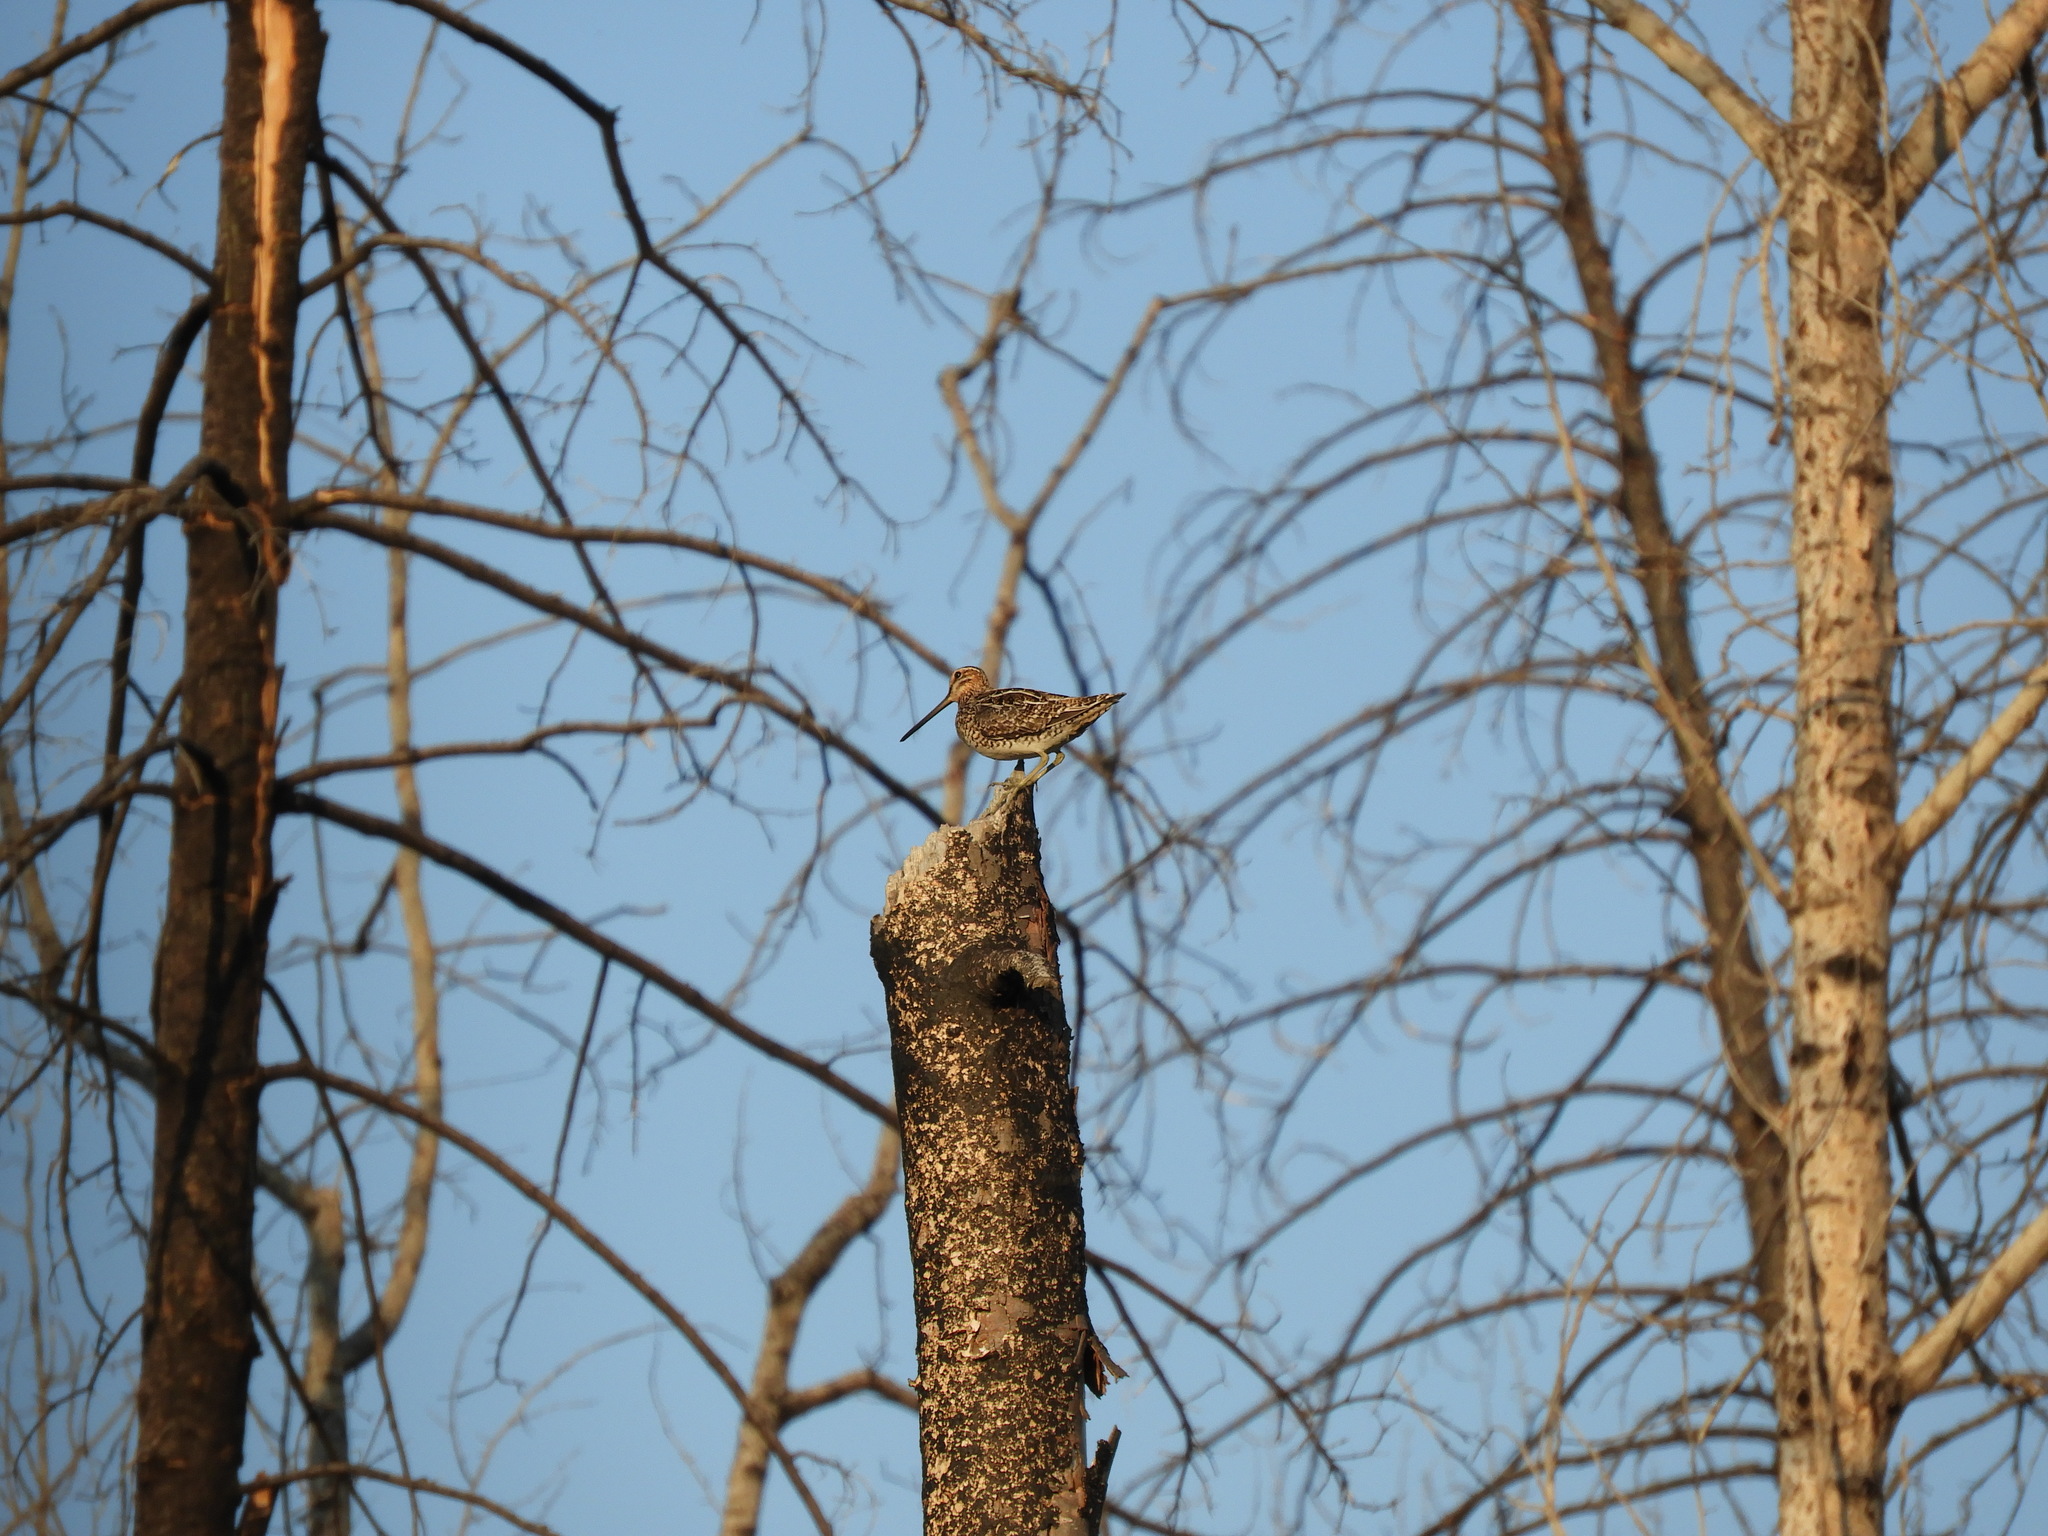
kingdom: Animalia
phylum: Chordata
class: Aves
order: Charadriiformes
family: Scolopacidae
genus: Gallinago
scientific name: Gallinago delicata
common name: Wilson's snipe
